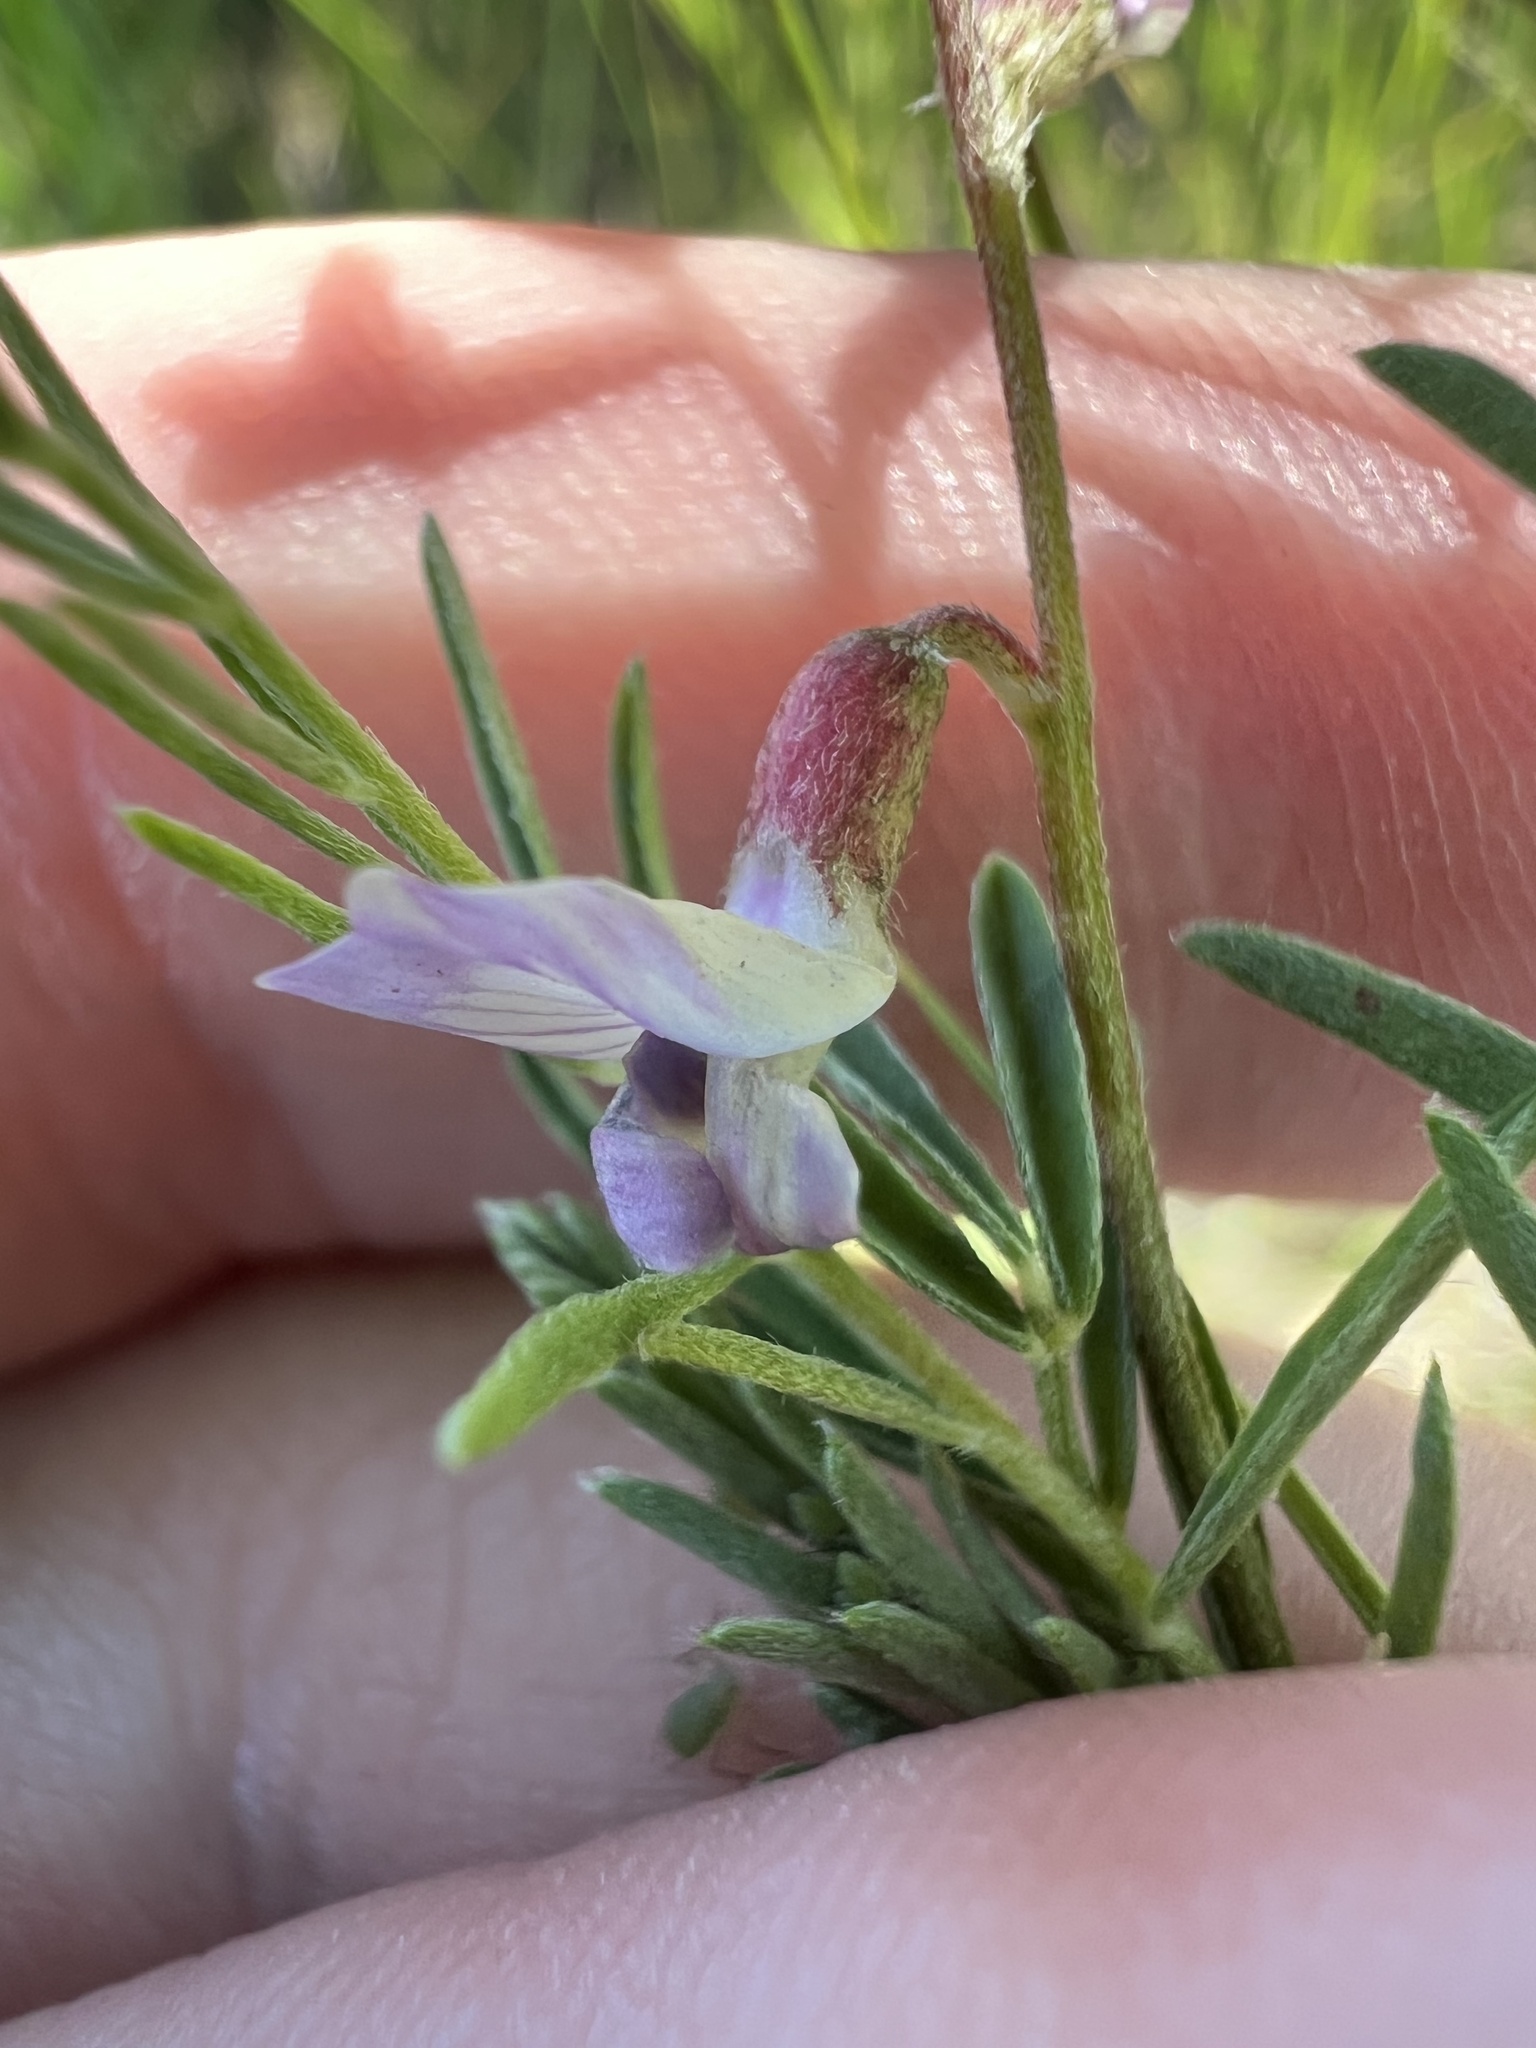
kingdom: Plantae
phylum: Tracheophyta
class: Magnoliopsida
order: Fabales
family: Fabaceae
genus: Astragalus
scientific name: Astragalus flexuosus
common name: Pliant milk-vetch
